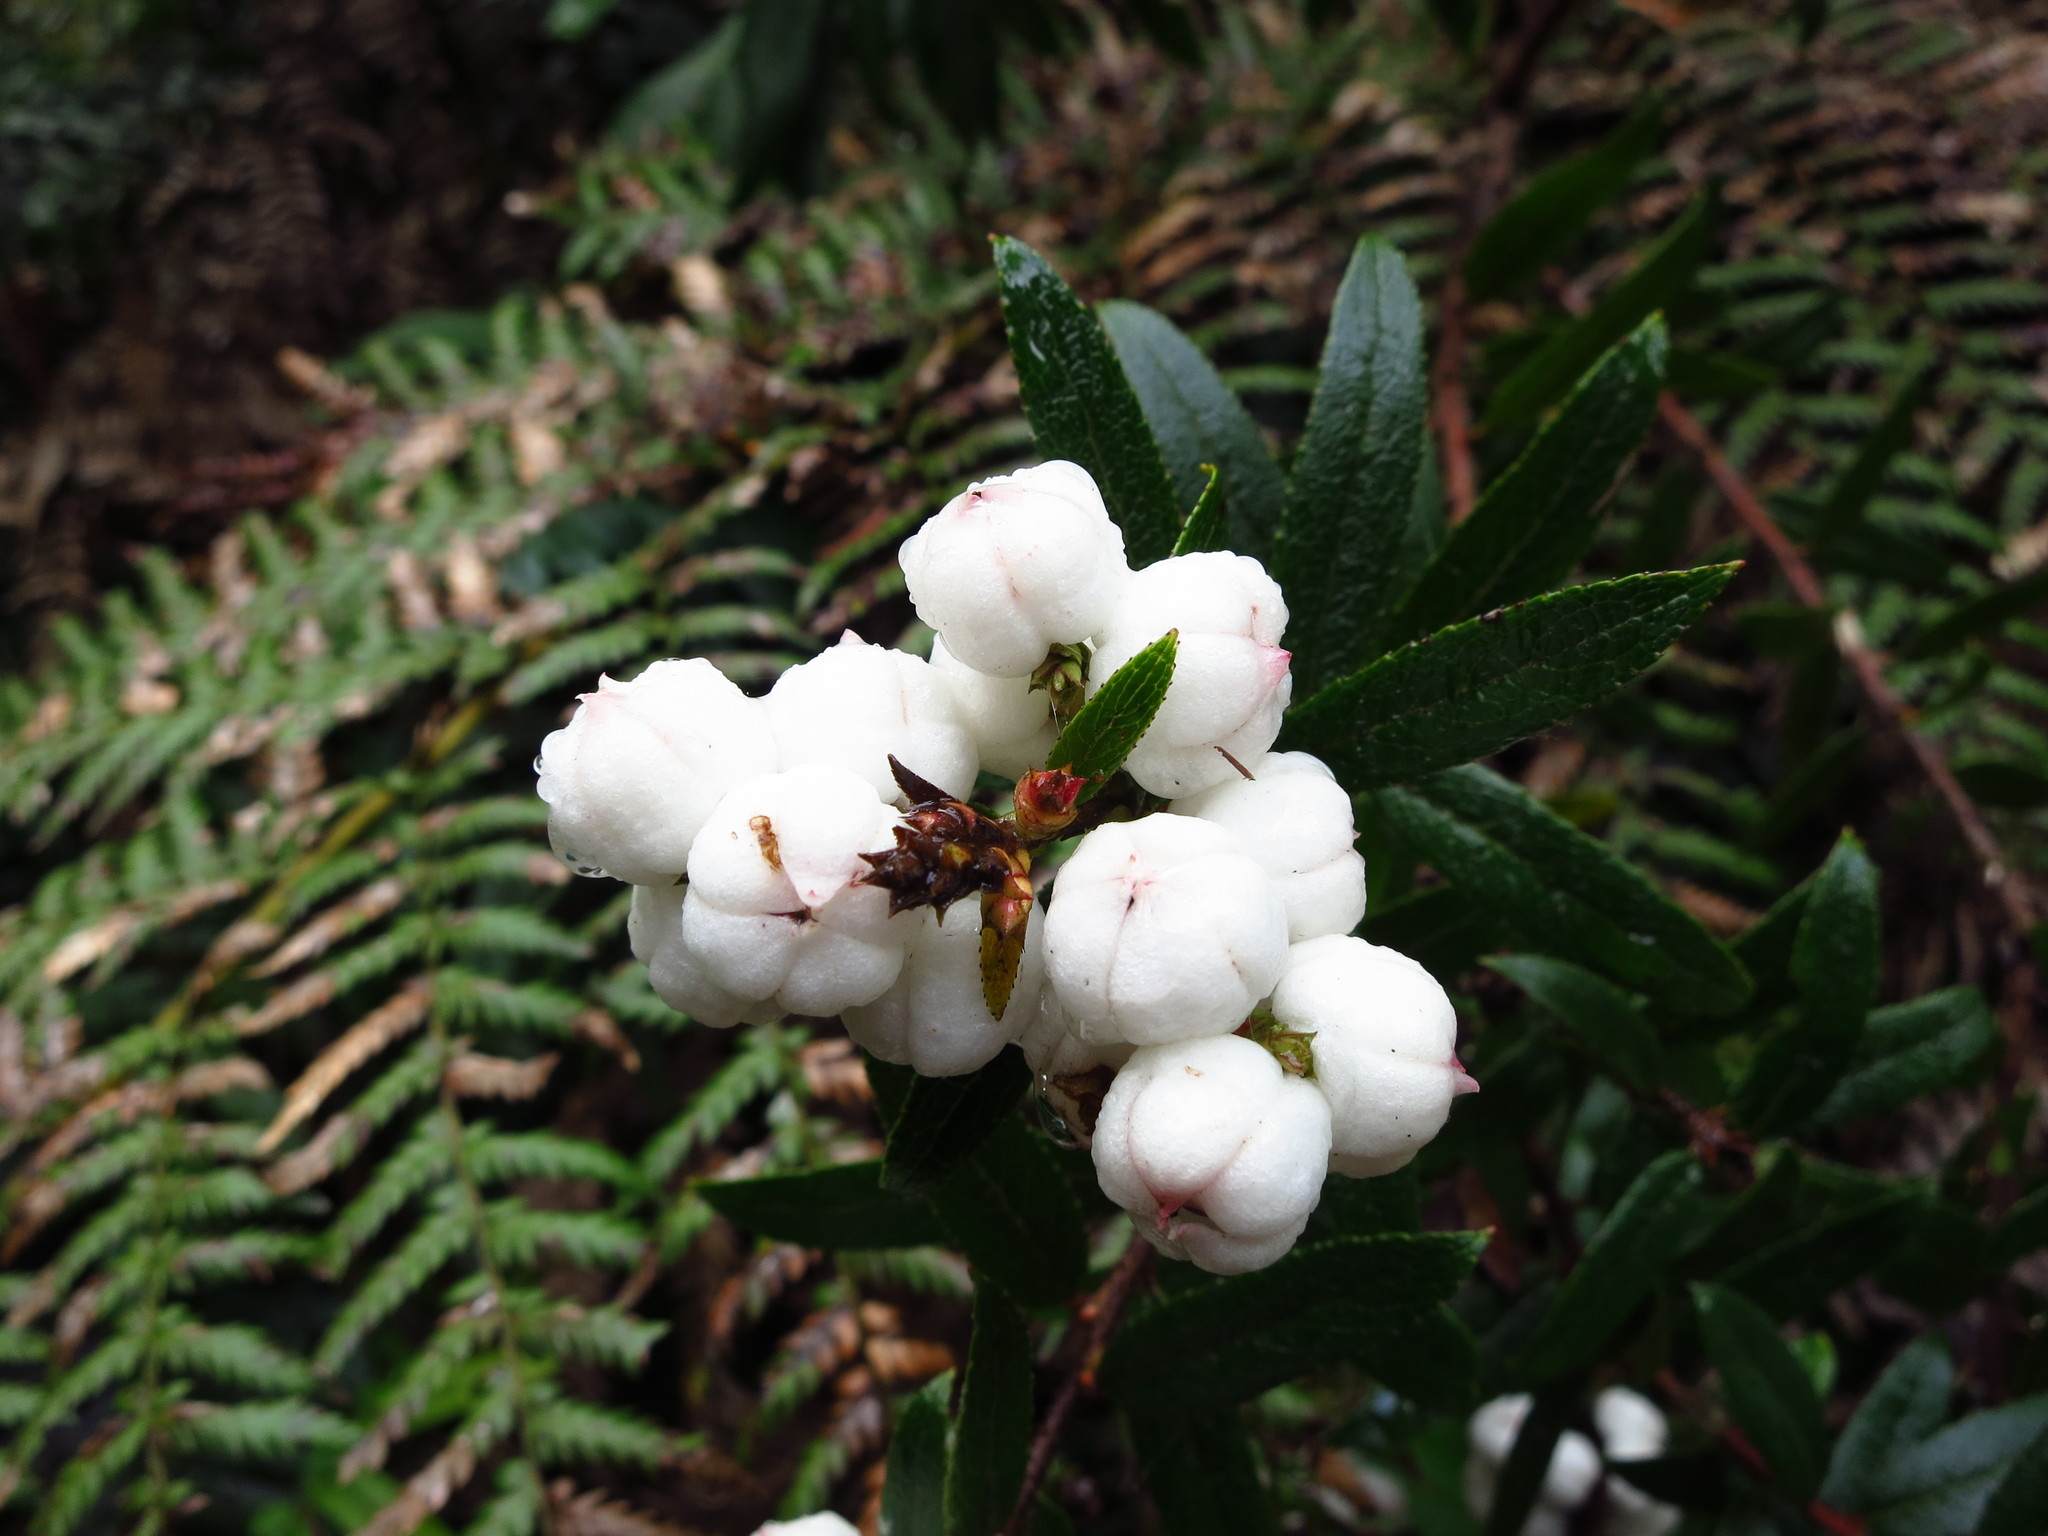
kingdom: Plantae
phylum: Tracheophyta
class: Magnoliopsida
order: Ericales
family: Ericaceae
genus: Gaultheria
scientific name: Gaultheria hispida
